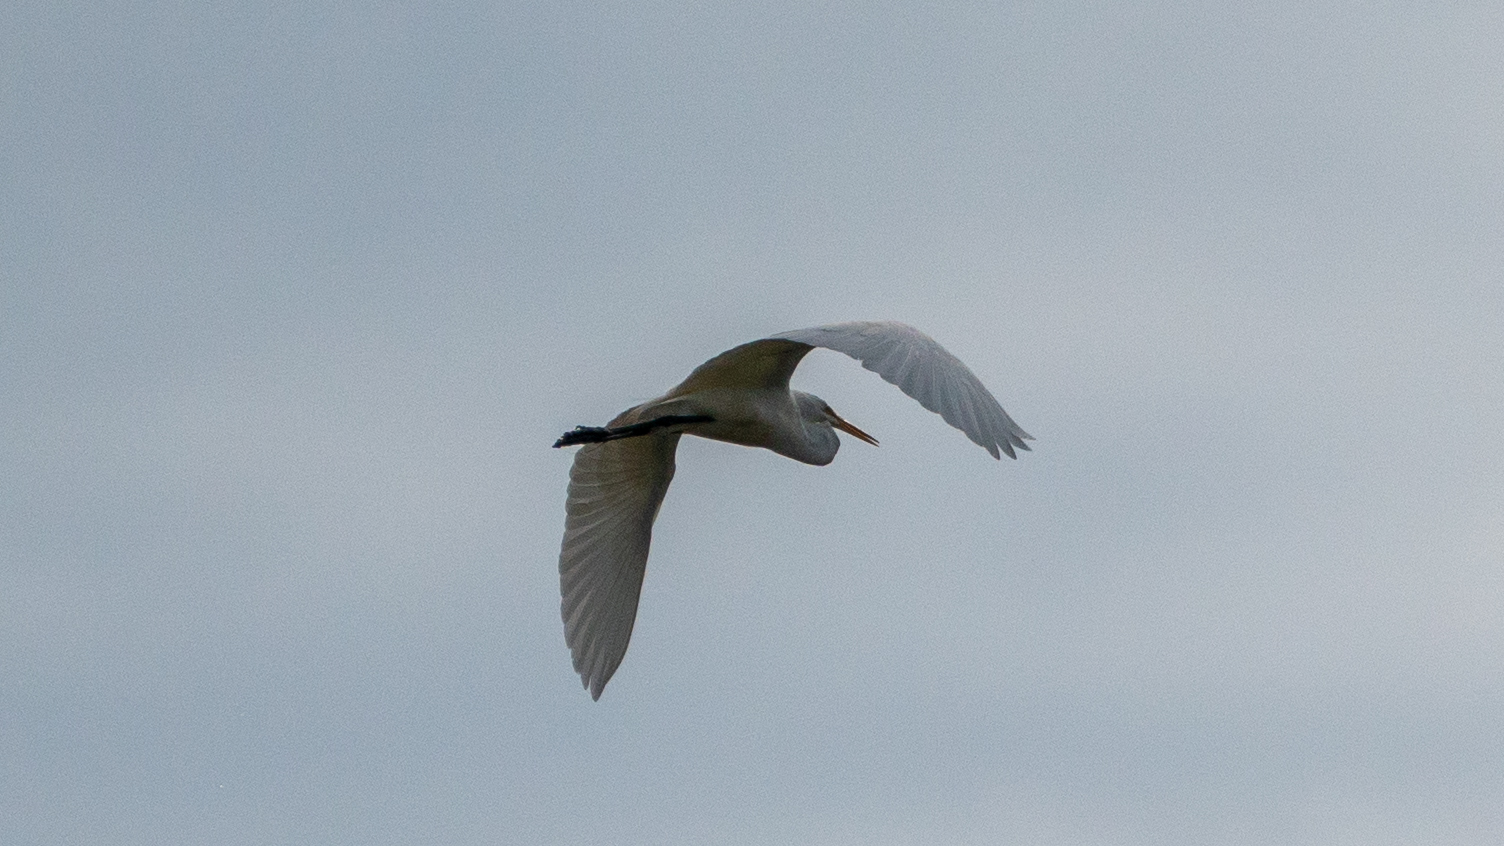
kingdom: Animalia
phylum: Chordata
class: Aves
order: Pelecaniformes
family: Ardeidae
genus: Ardea
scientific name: Ardea alba
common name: Great egret
